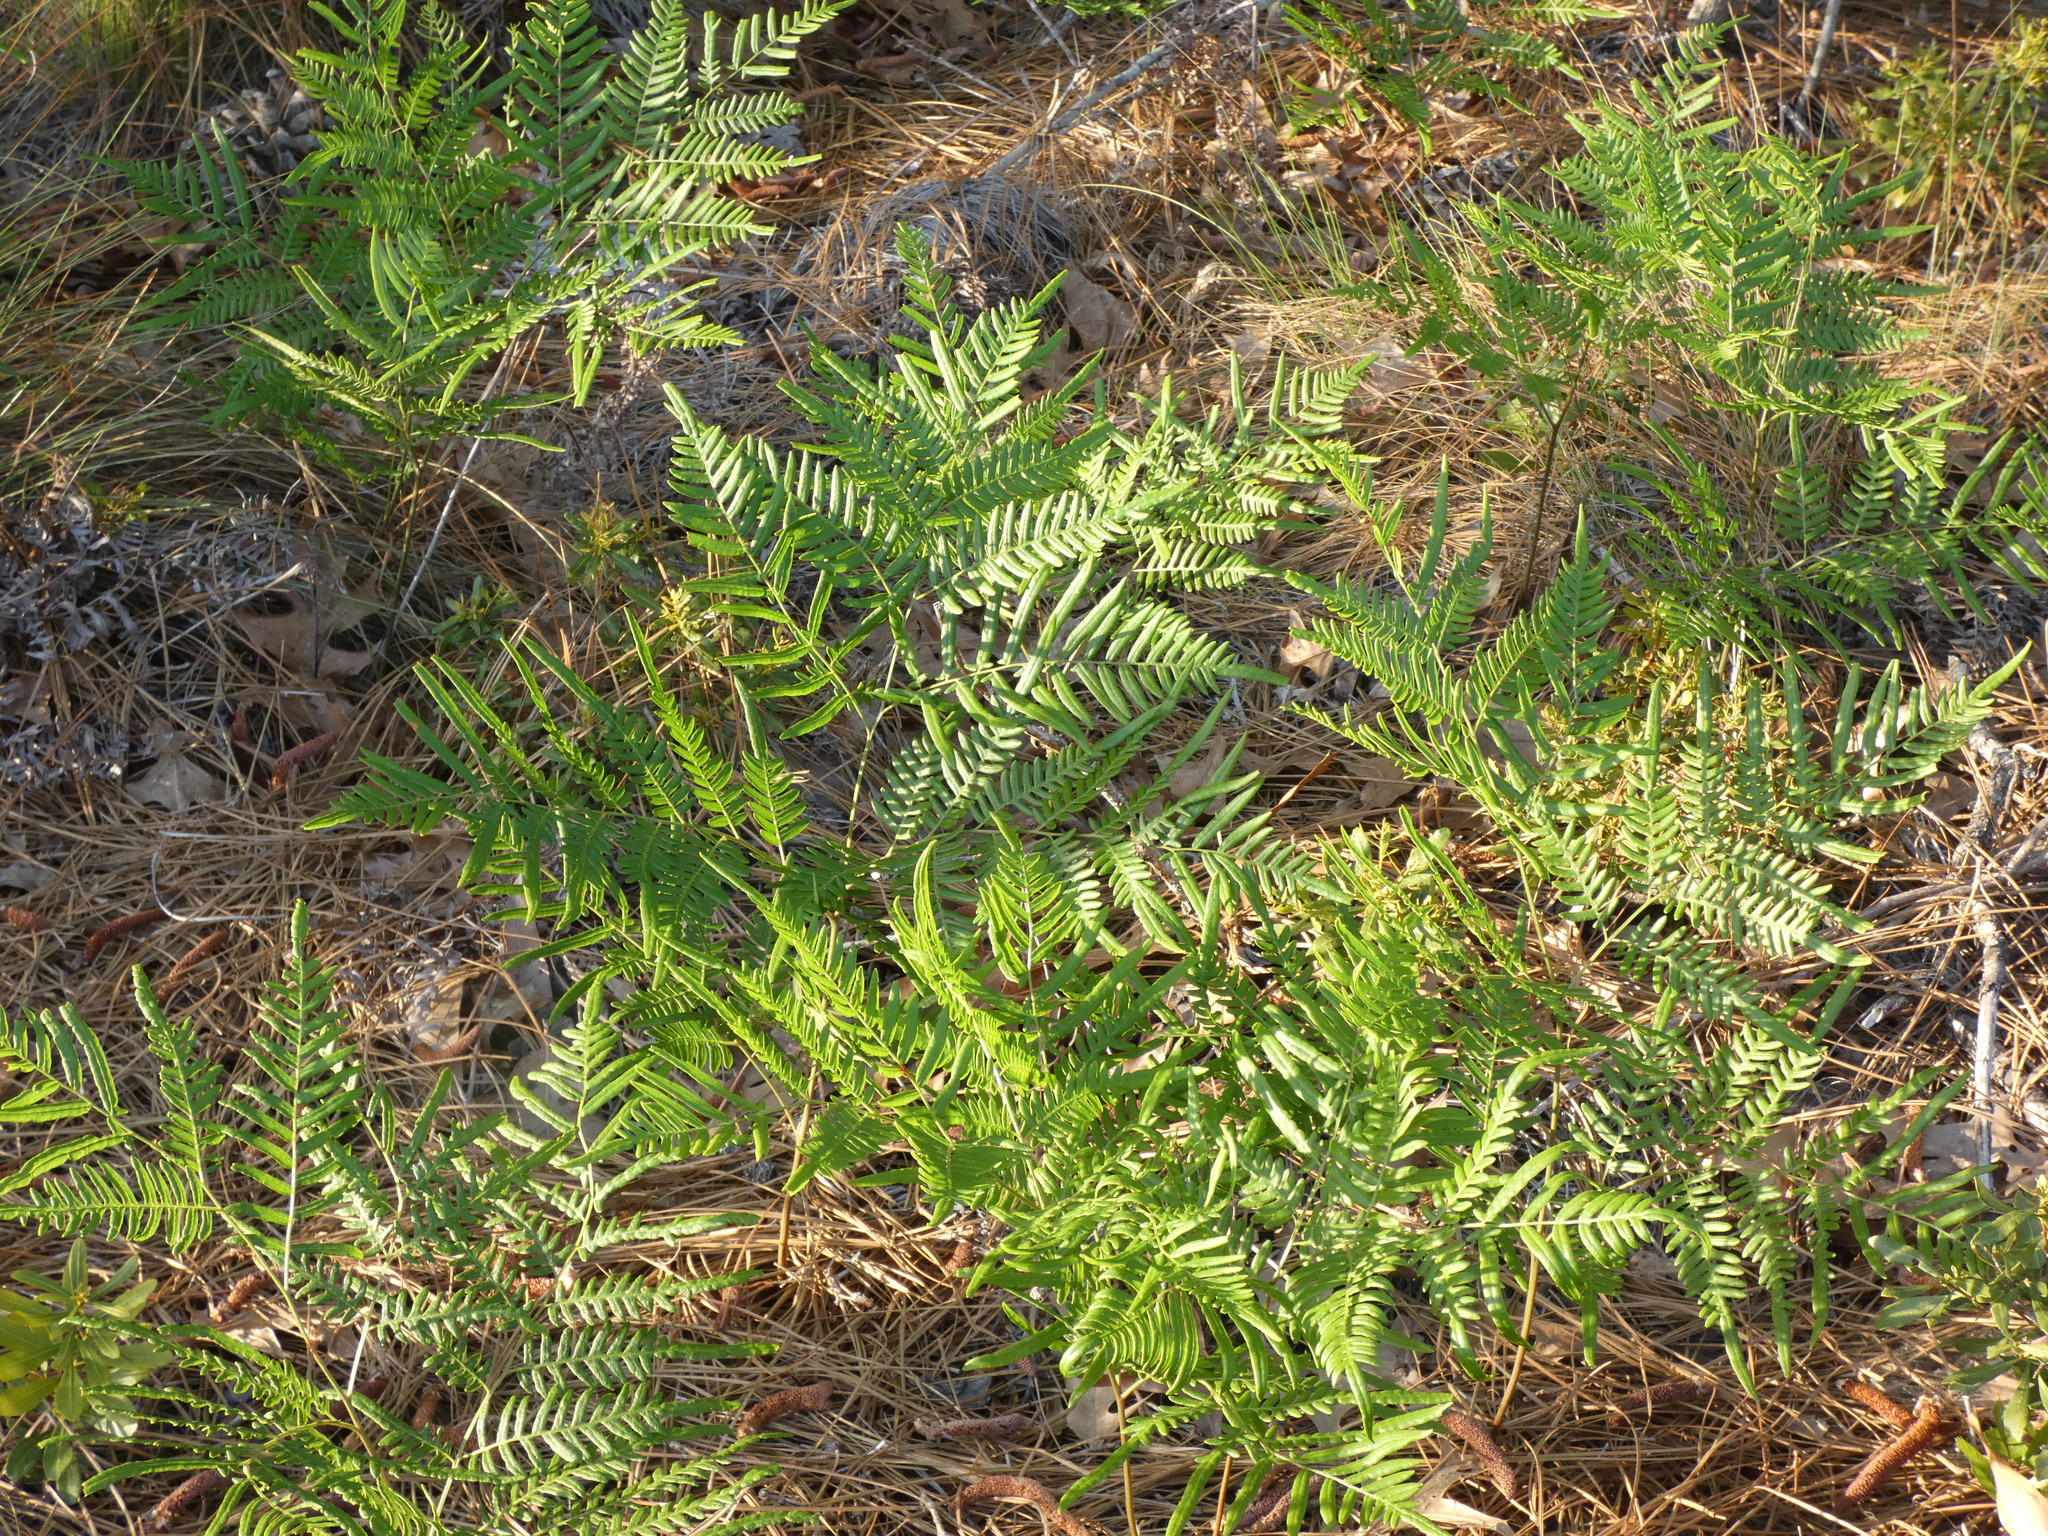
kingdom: Plantae
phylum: Tracheophyta
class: Polypodiopsida
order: Polypodiales
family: Dennstaedtiaceae
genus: Pteridium
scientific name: Pteridium aquilinum
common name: Bracken
